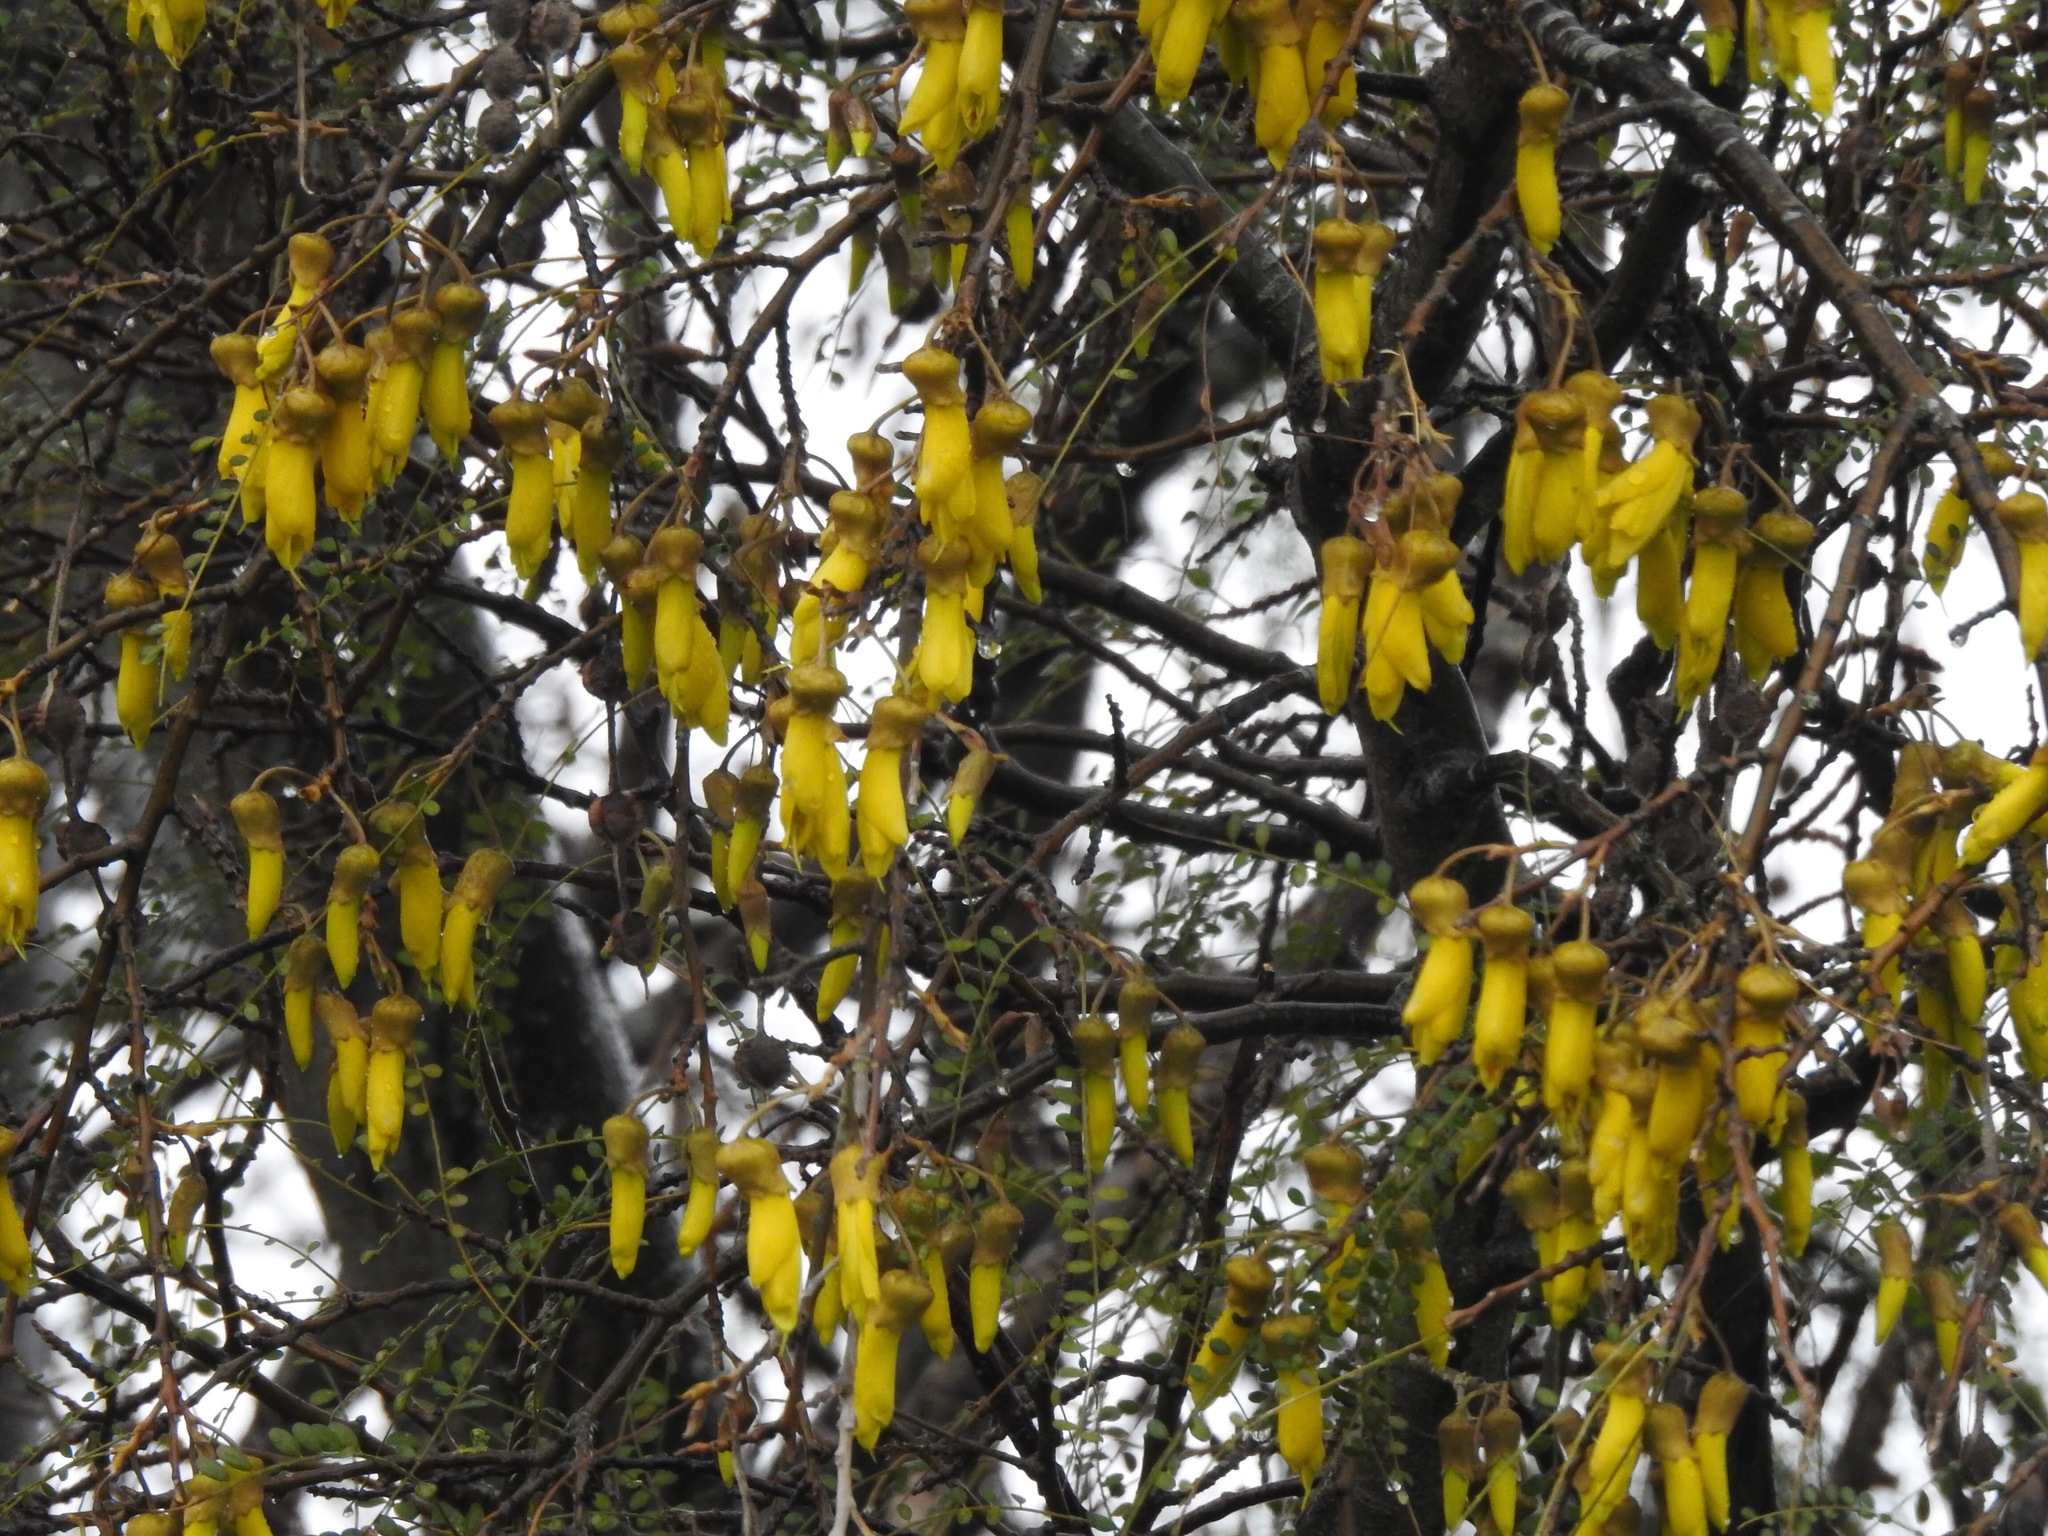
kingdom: Plantae
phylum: Tracheophyta
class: Magnoliopsida
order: Fabales
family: Fabaceae
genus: Sophora
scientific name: Sophora microphylla
